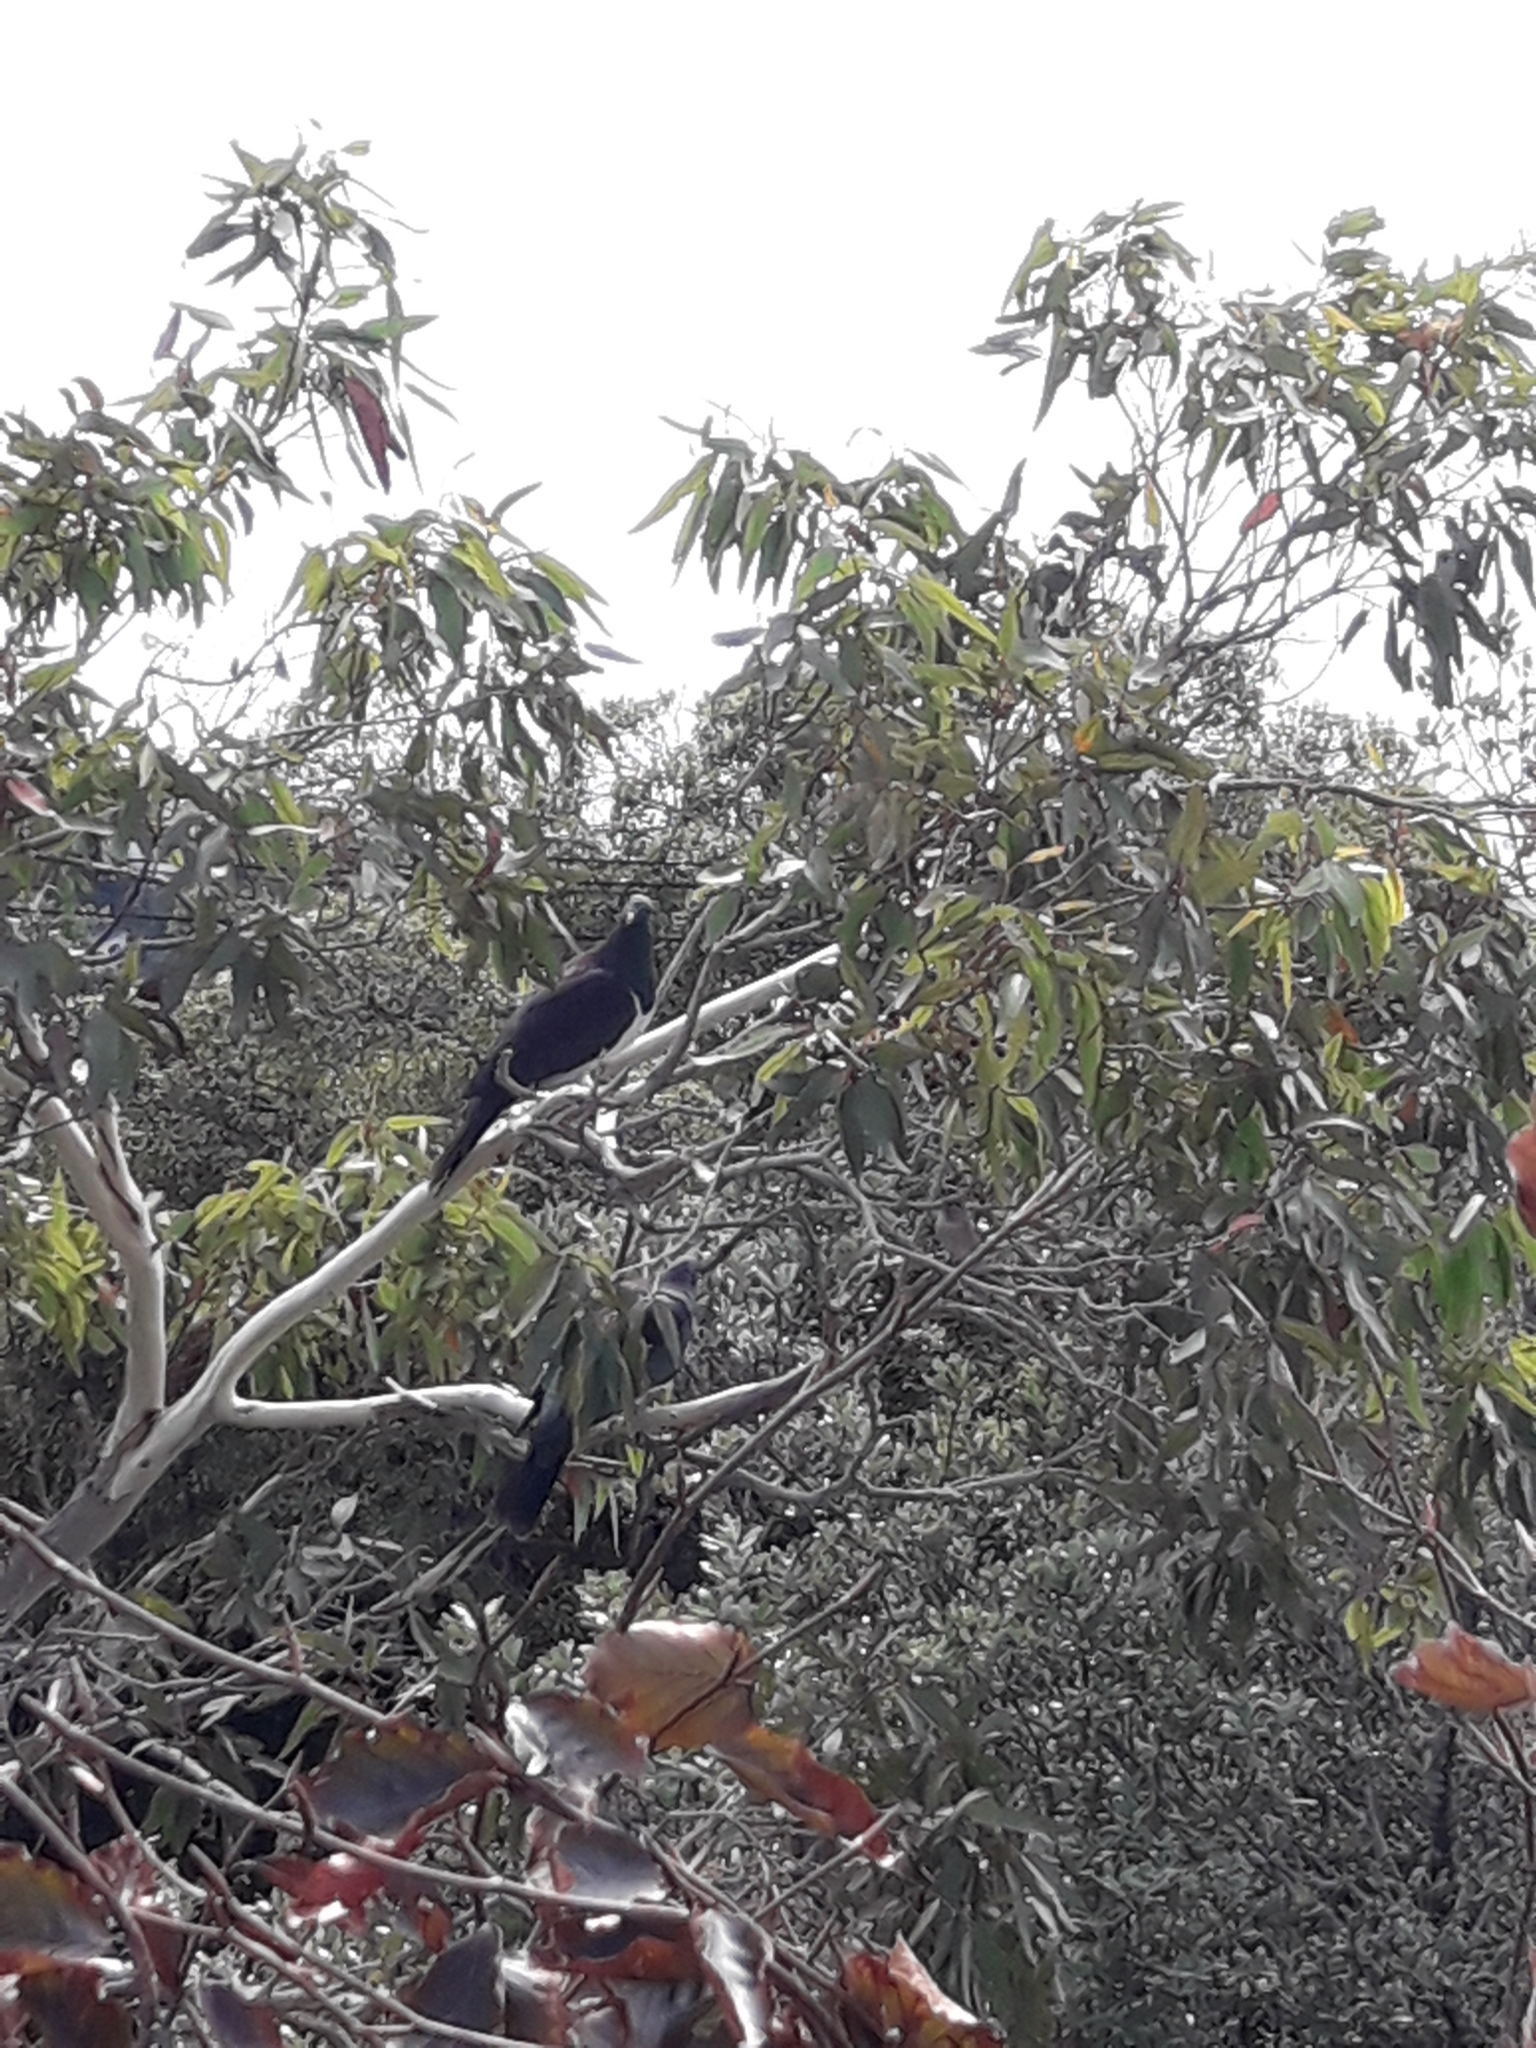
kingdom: Animalia
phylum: Chordata
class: Aves
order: Columbiformes
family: Columbidae
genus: Hemiphaga
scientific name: Hemiphaga novaeseelandiae
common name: New zealand pigeon
